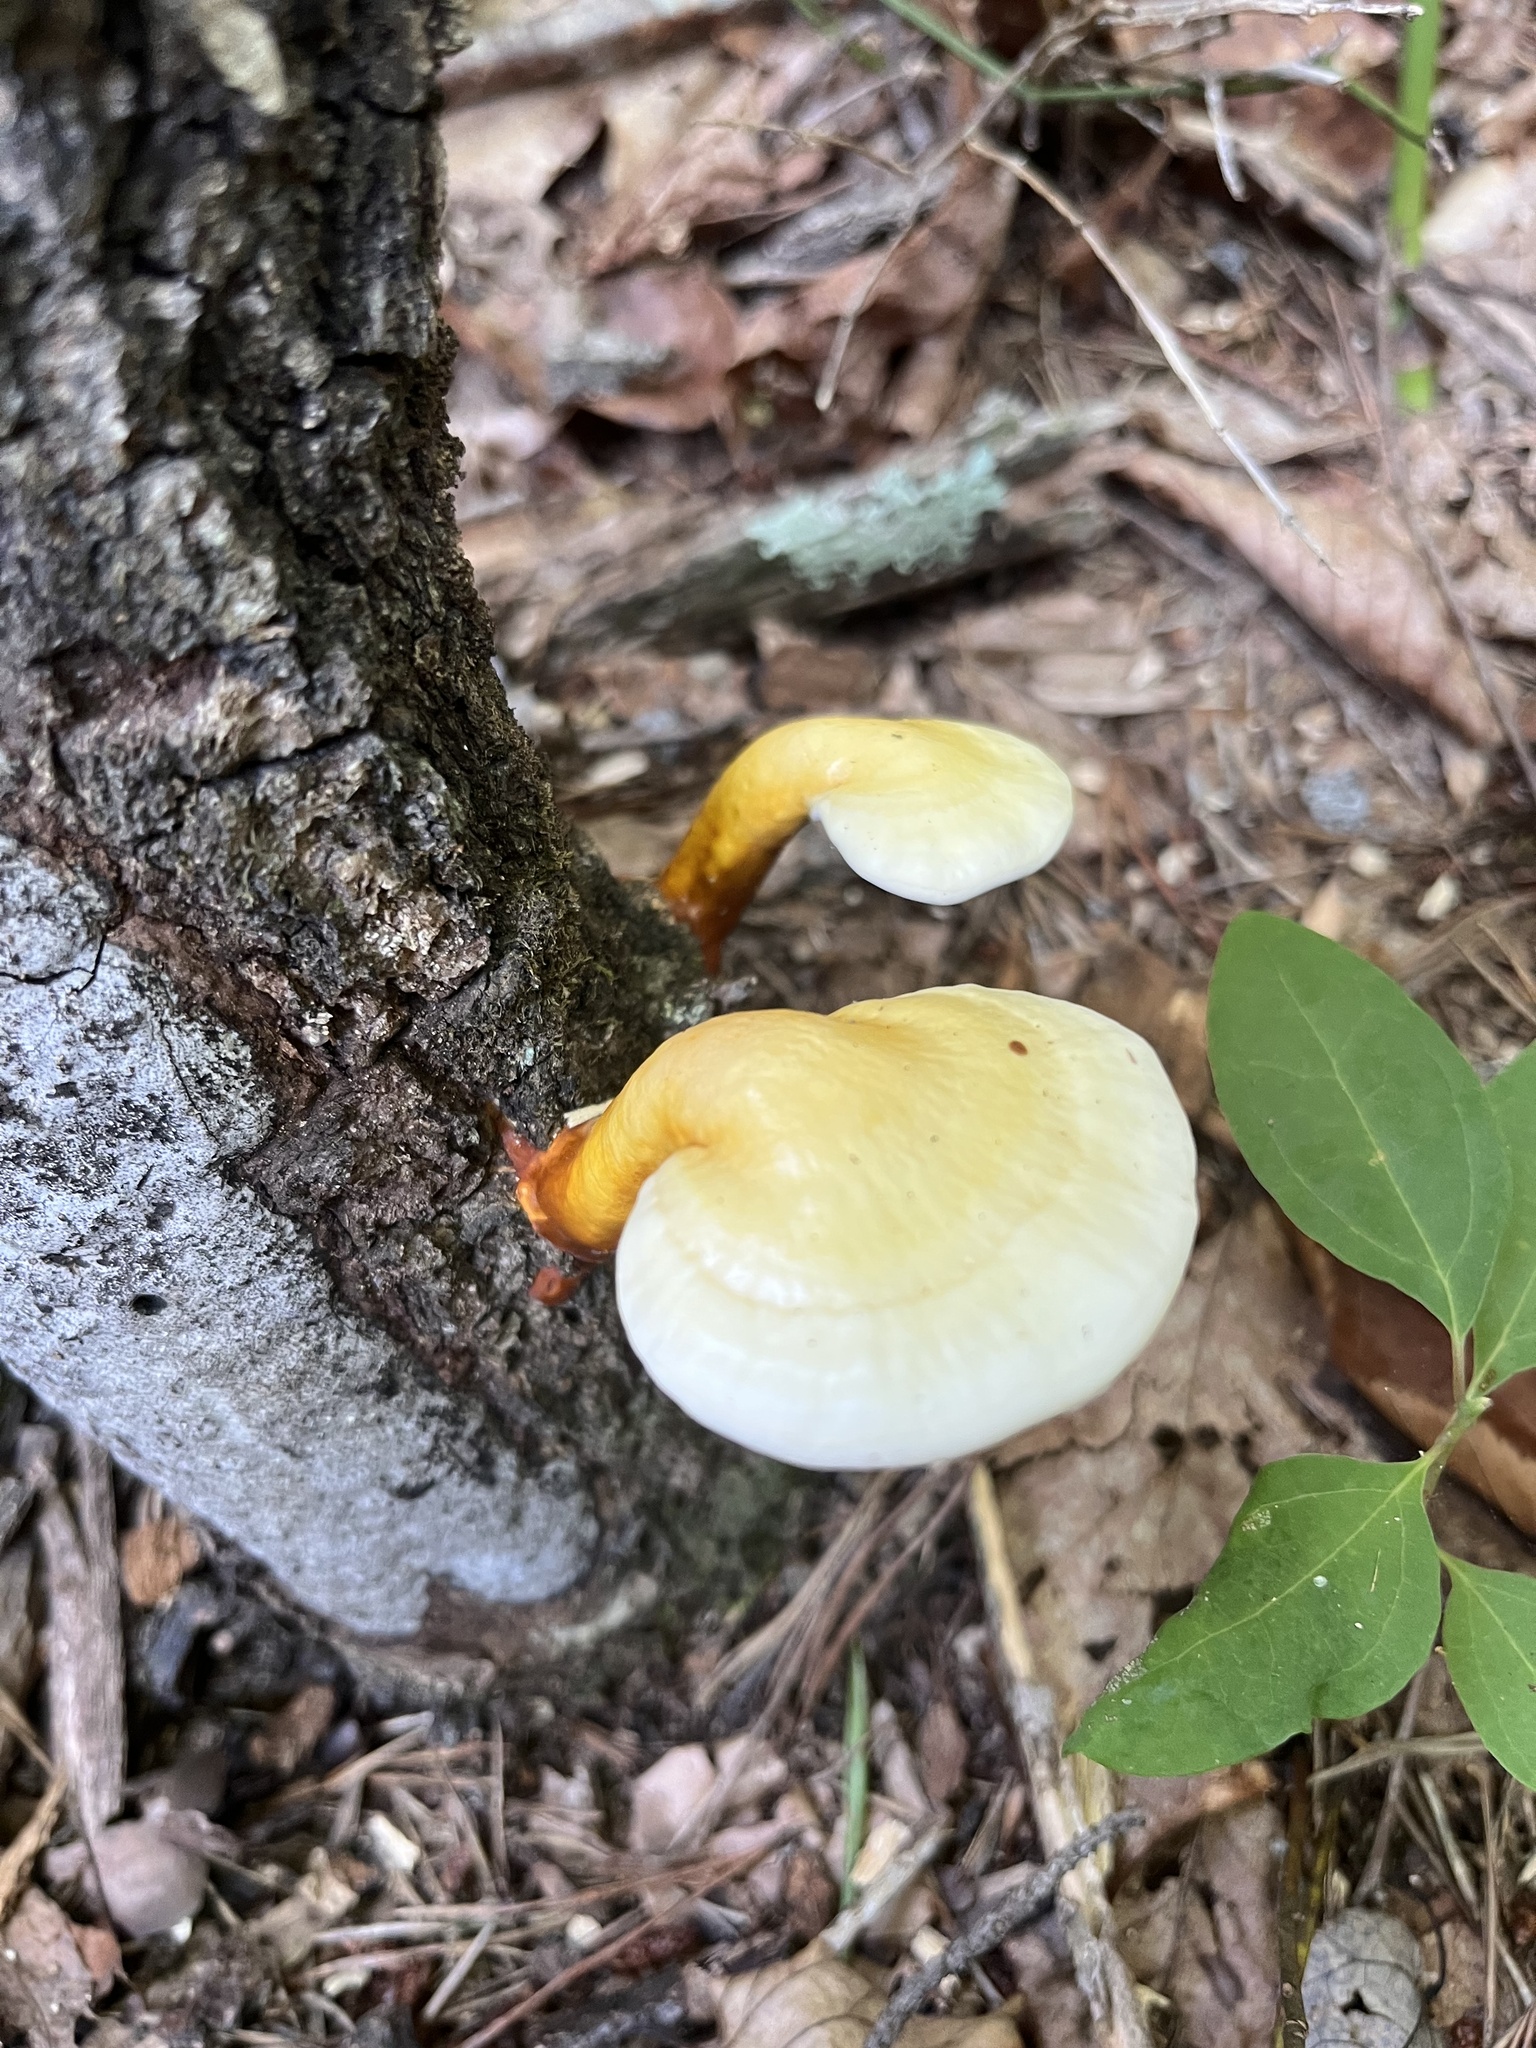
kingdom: Fungi
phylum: Basidiomycota
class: Agaricomycetes
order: Polyporales
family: Polyporaceae
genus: Ganoderma
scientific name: Ganoderma curtisii
